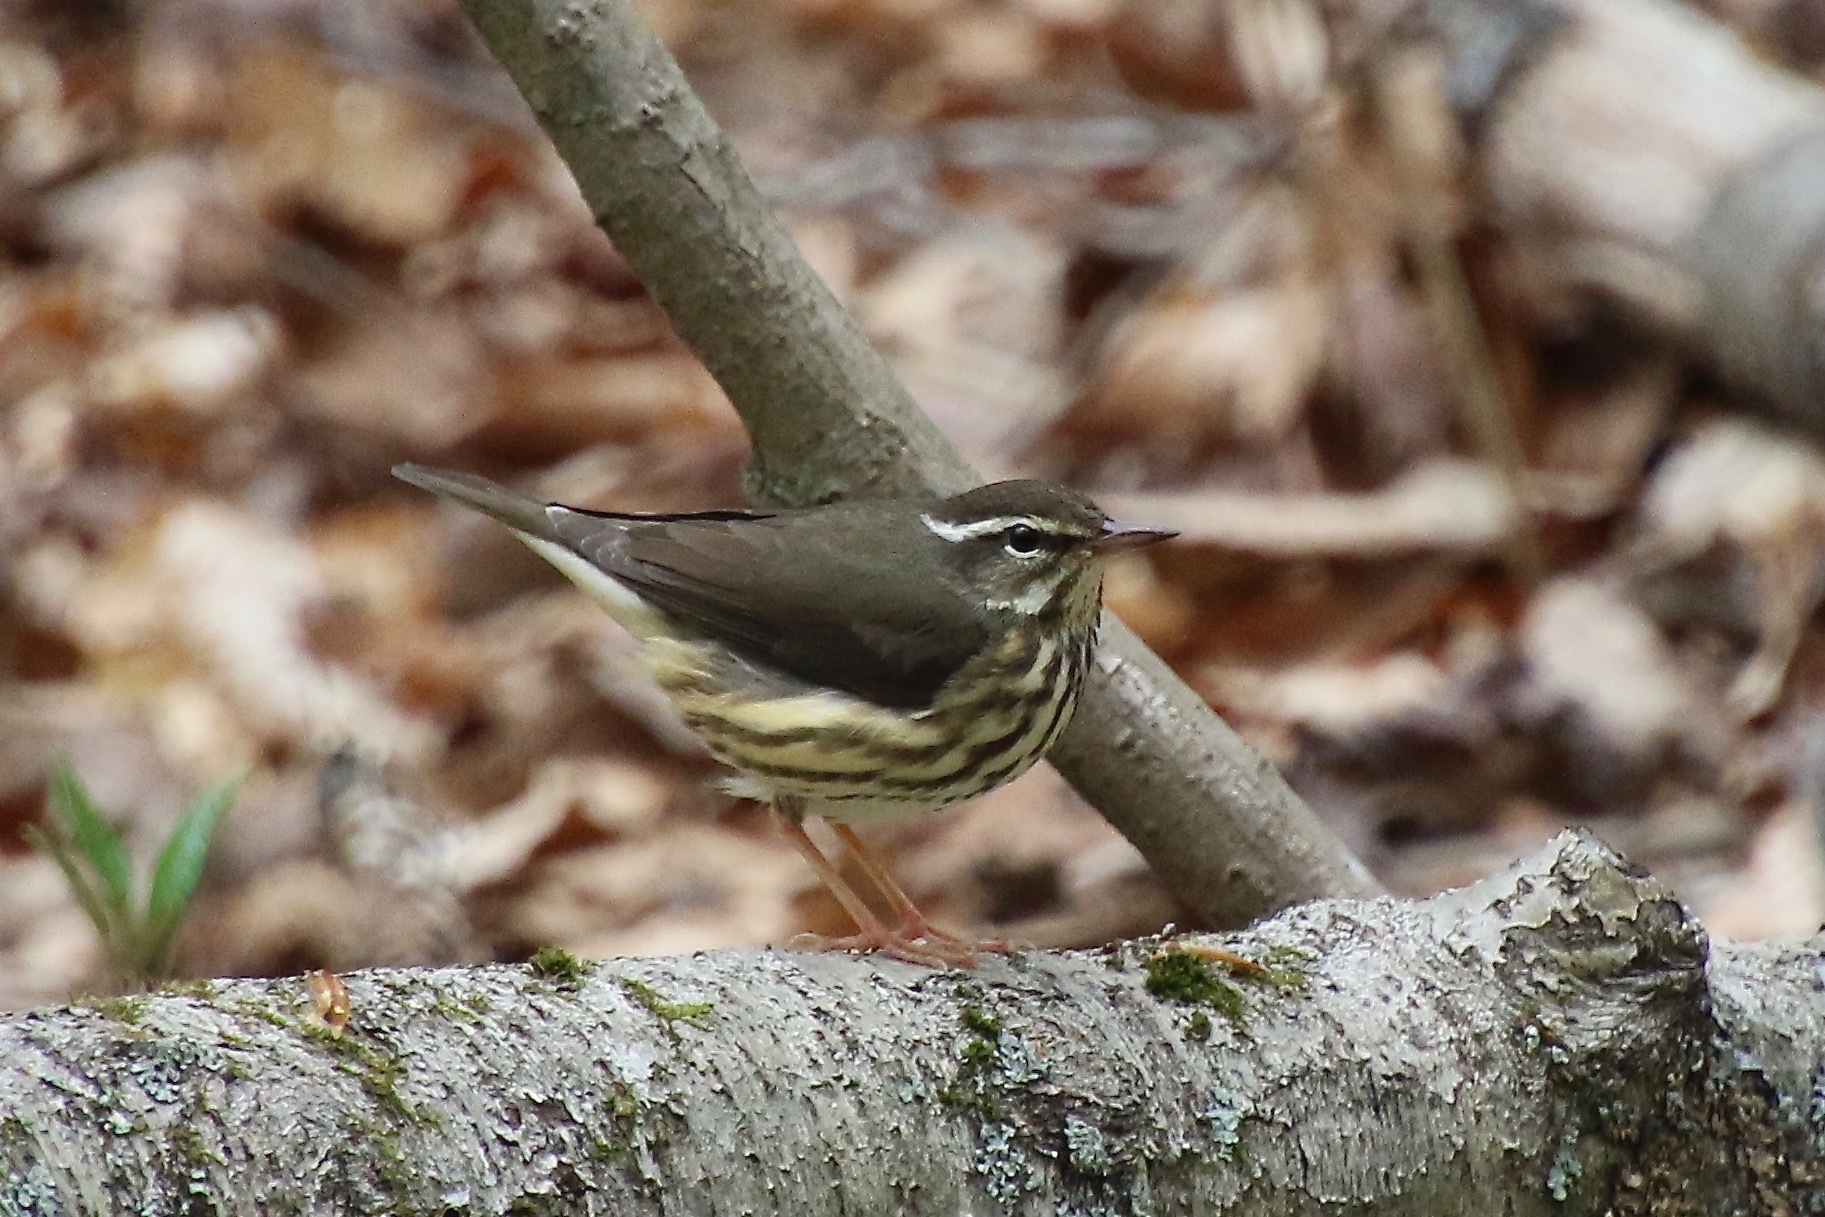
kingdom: Animalia
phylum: Chordata
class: Aves
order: Passeriformes
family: Parulidae
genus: Parkesia
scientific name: Parkesia motacilla
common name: Louisiana waterthrush
